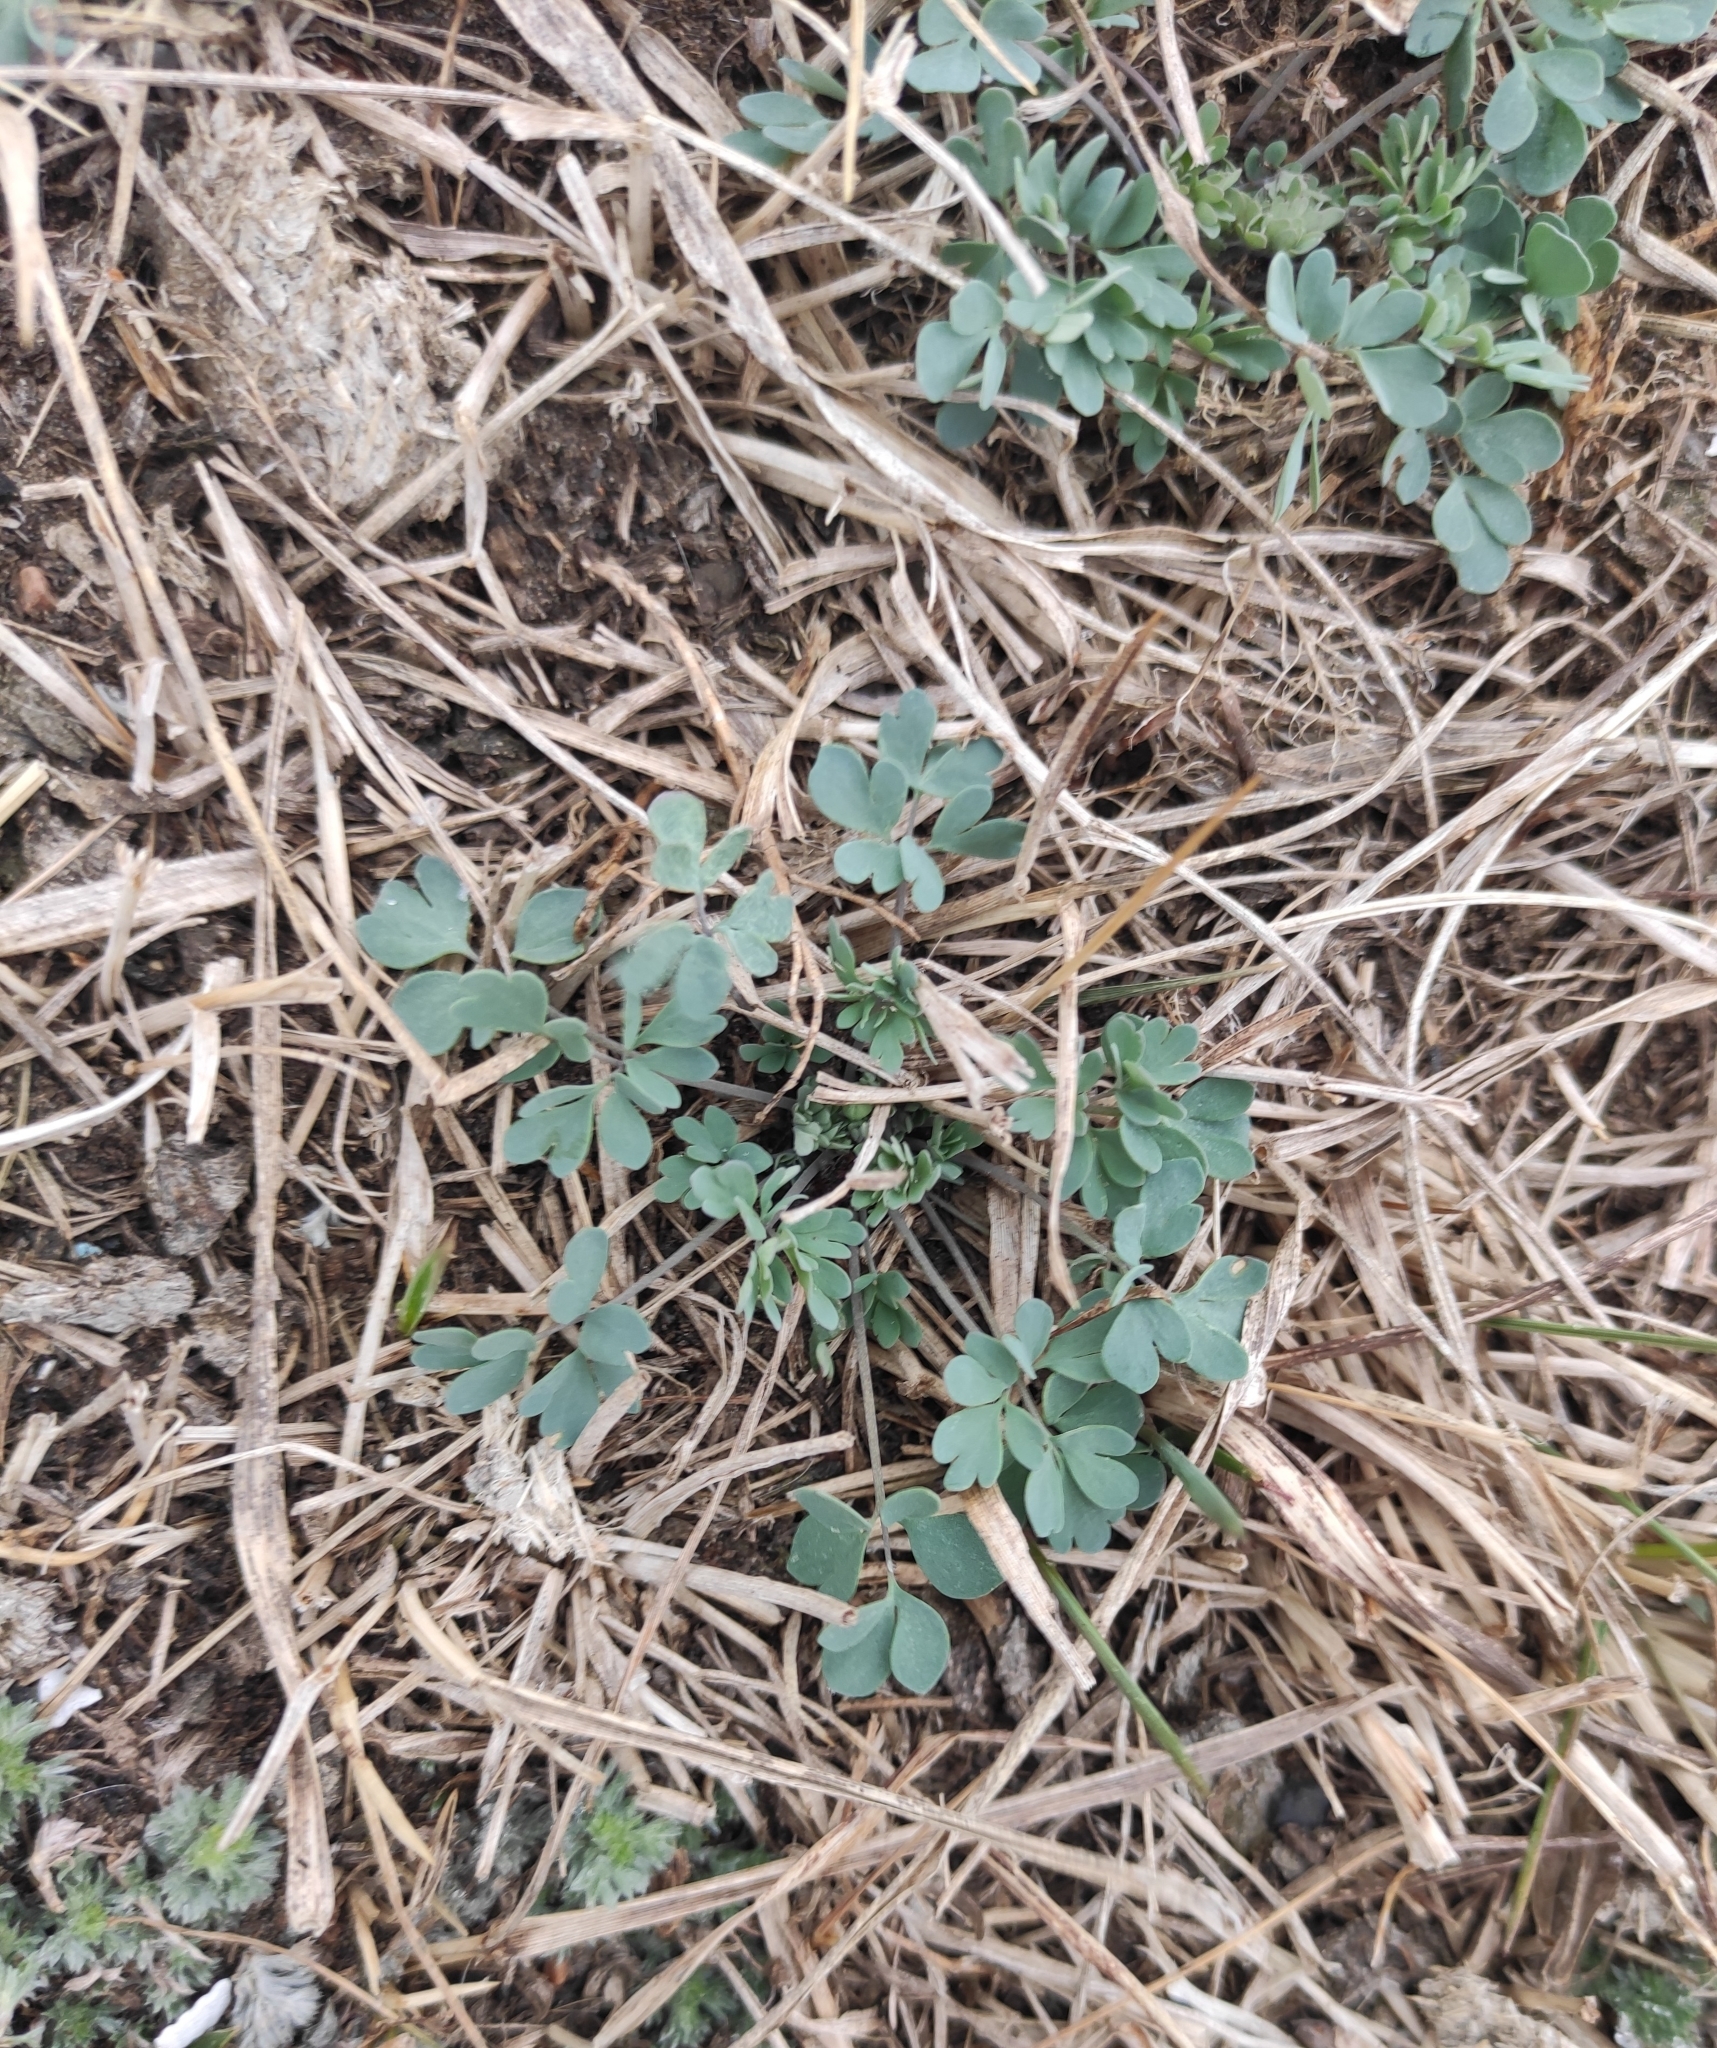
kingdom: Plantae
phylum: Tracheophyta
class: Magnoliopsida
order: Ranunculales
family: Ranunculaceae
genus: Leptopyrum
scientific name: Leptopyrum fumarioides
